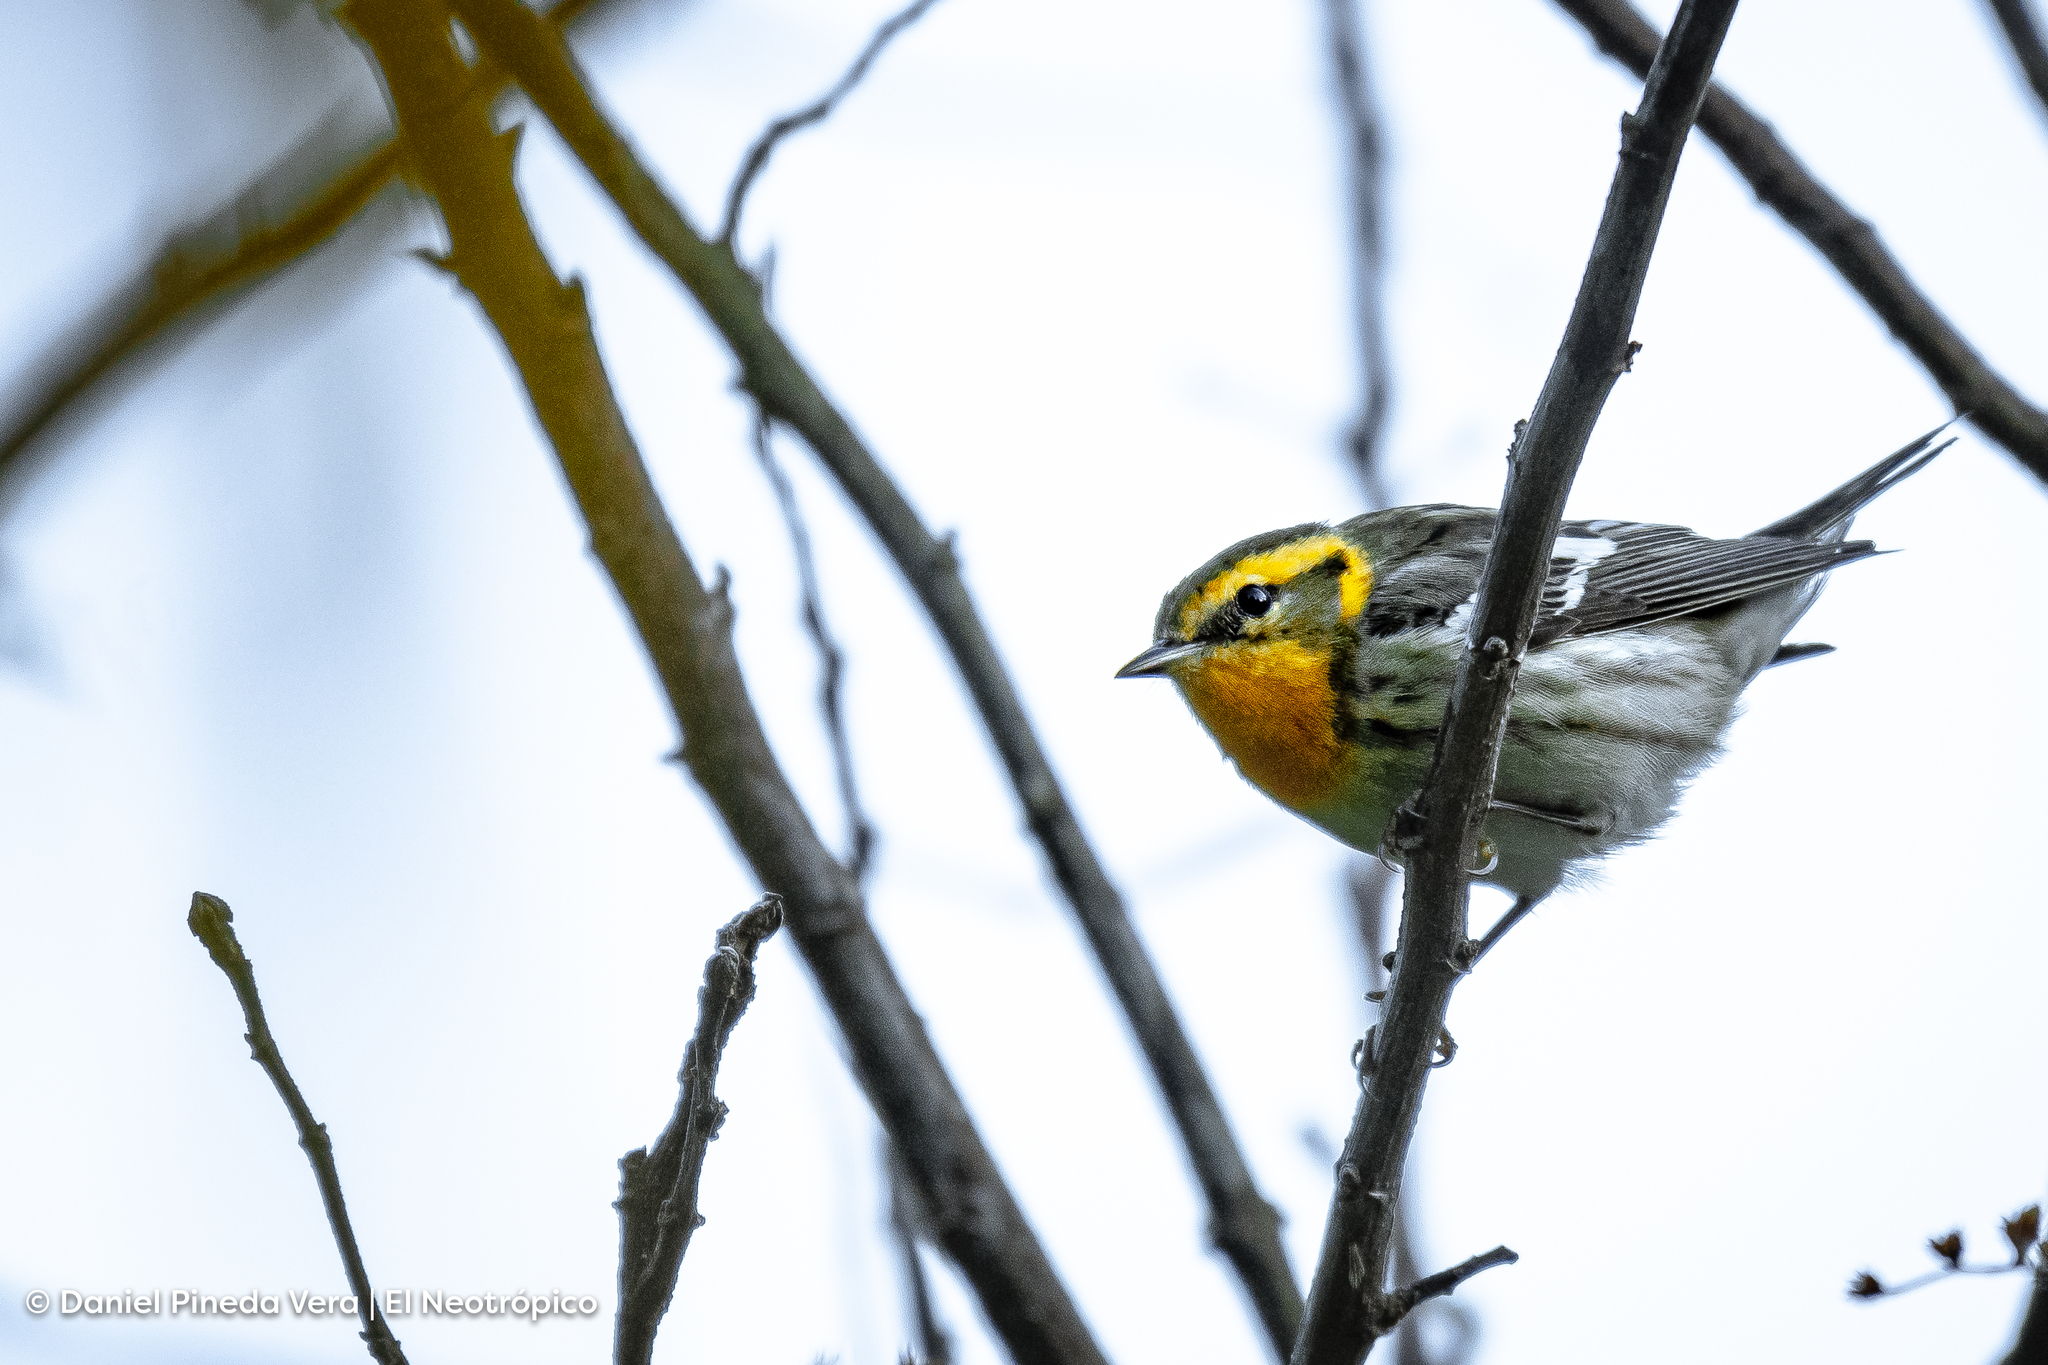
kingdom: Animalia
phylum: Chordata
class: Aves
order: Passeriformes
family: Parulidae
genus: Setophaga
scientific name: Setophaga fusca
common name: Blackburnian warbler
